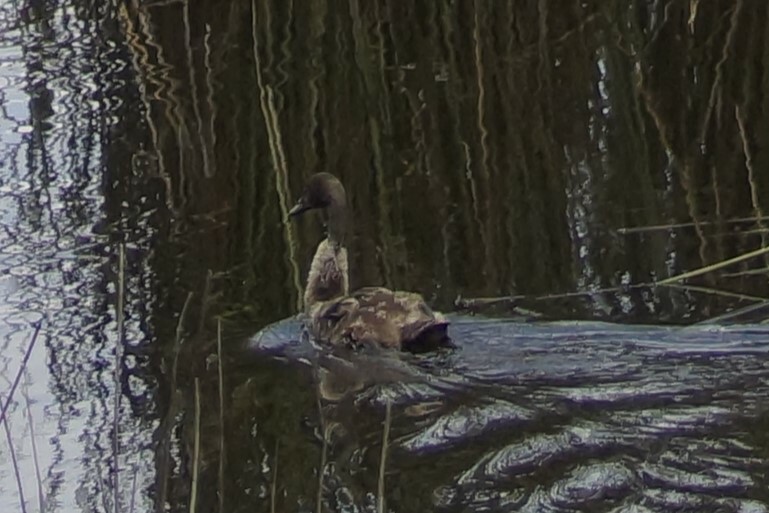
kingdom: Animalia
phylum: Chordata
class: Aves
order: Anseriformes
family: Anatidae
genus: Cygnus
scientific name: Cygnus atratus
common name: Black swan
